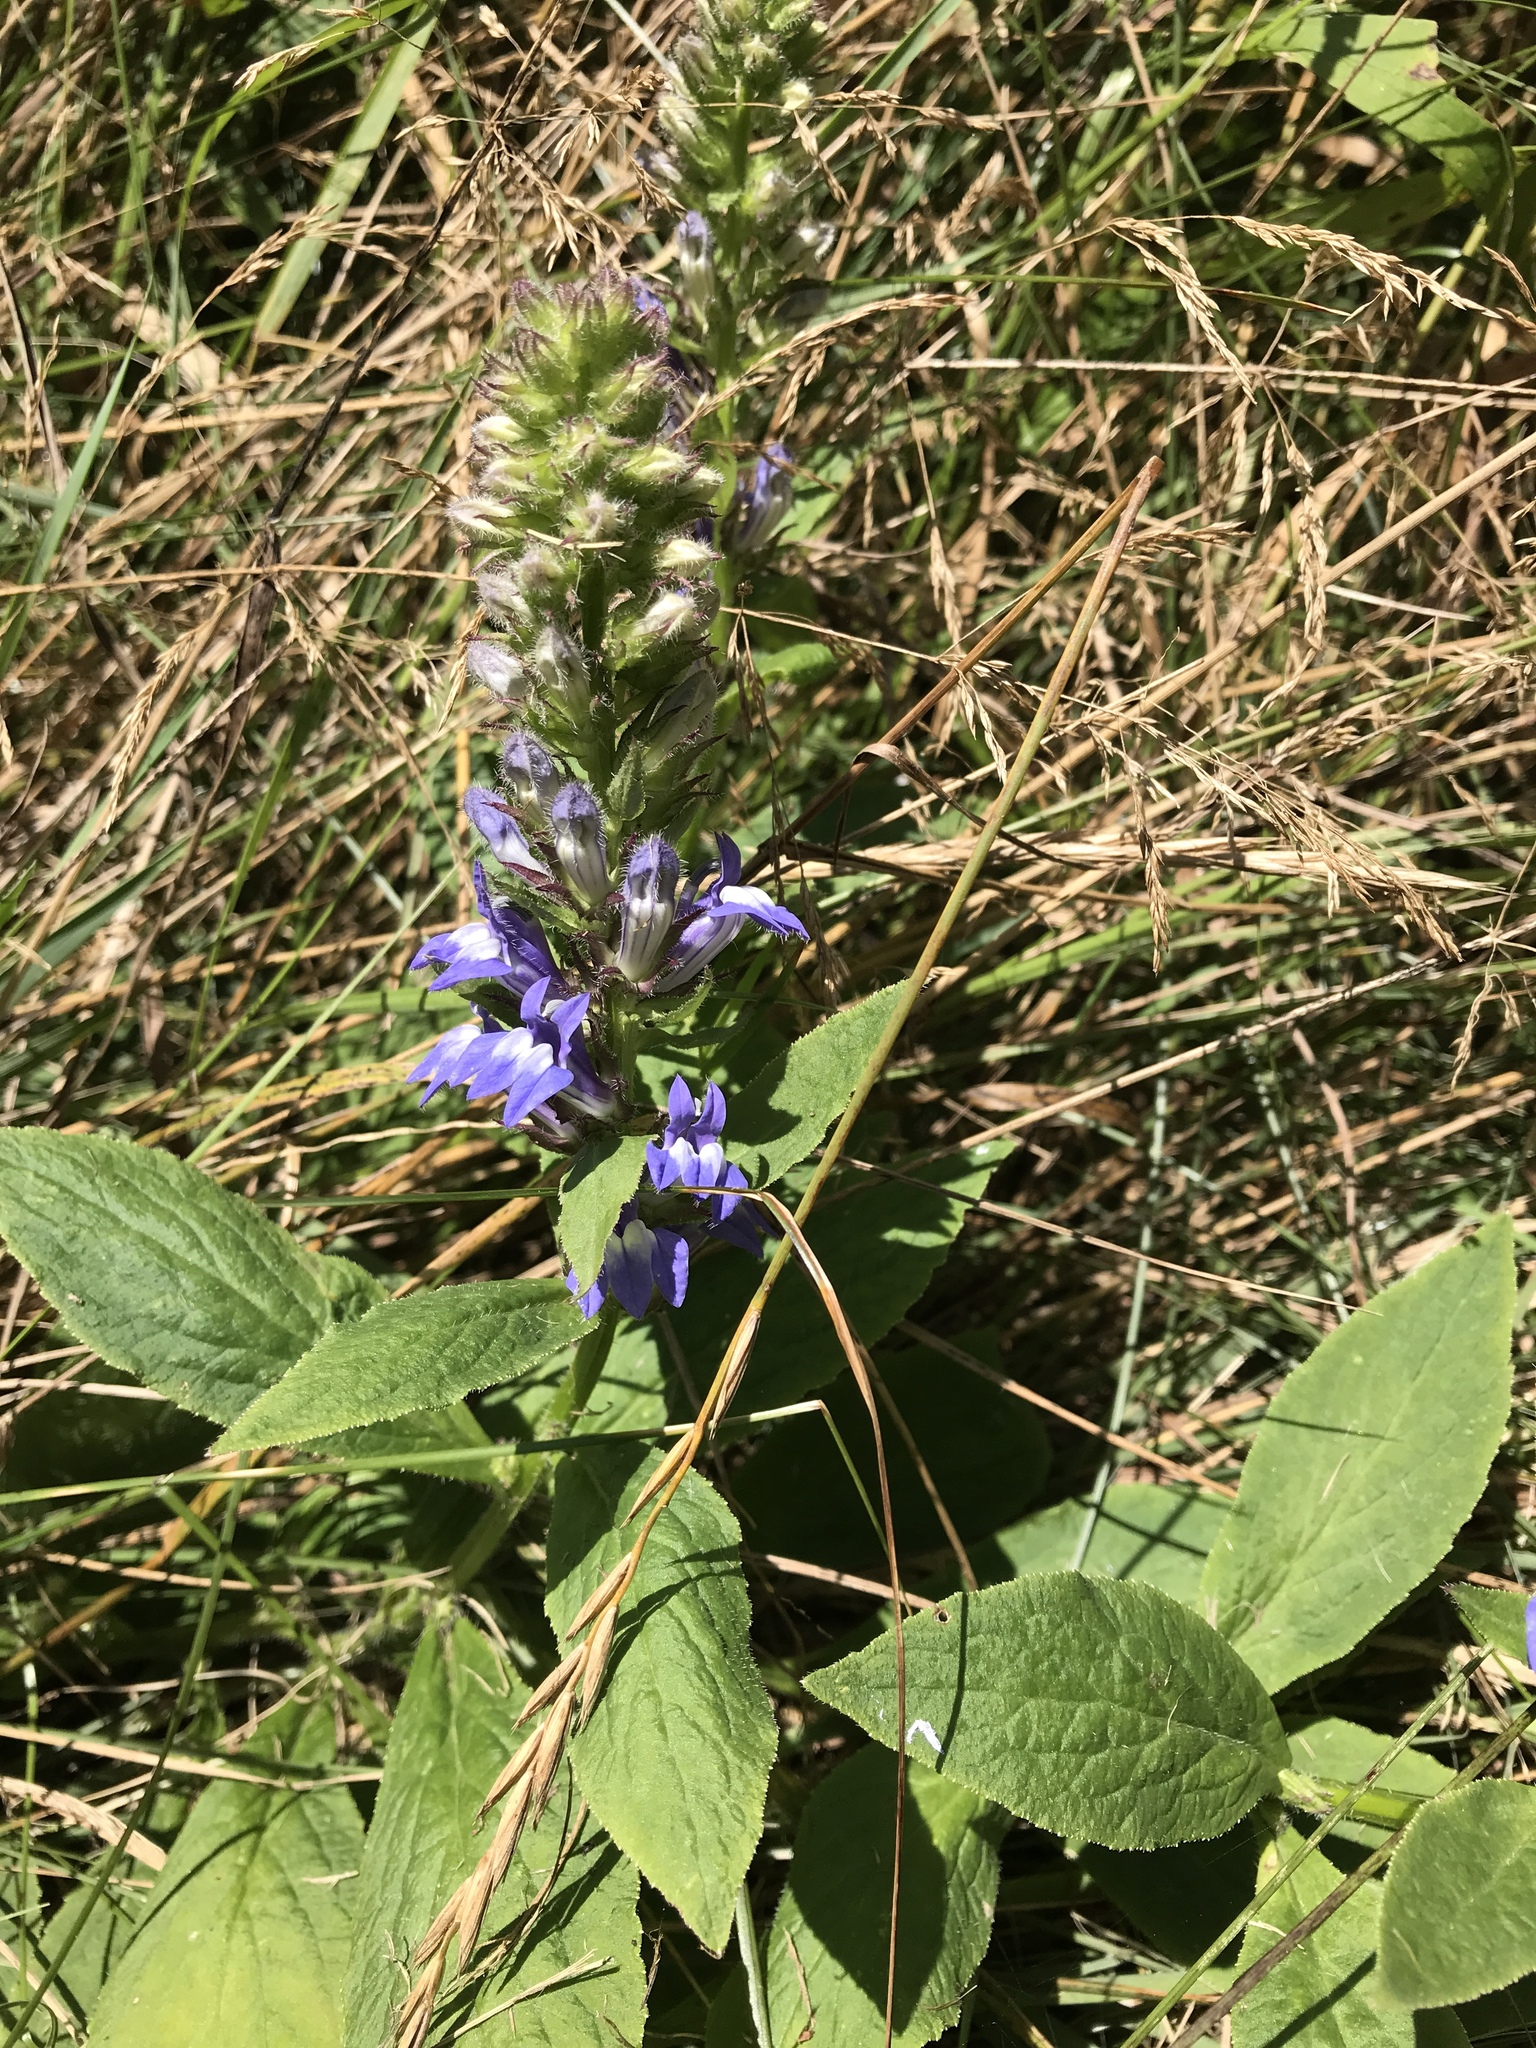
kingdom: Plantae
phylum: Tracheophyta
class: Magnoliopsida
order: Asterales
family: Campanulaceae
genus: Lobelia
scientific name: Lobelia siphilitica
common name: Great lobelia
